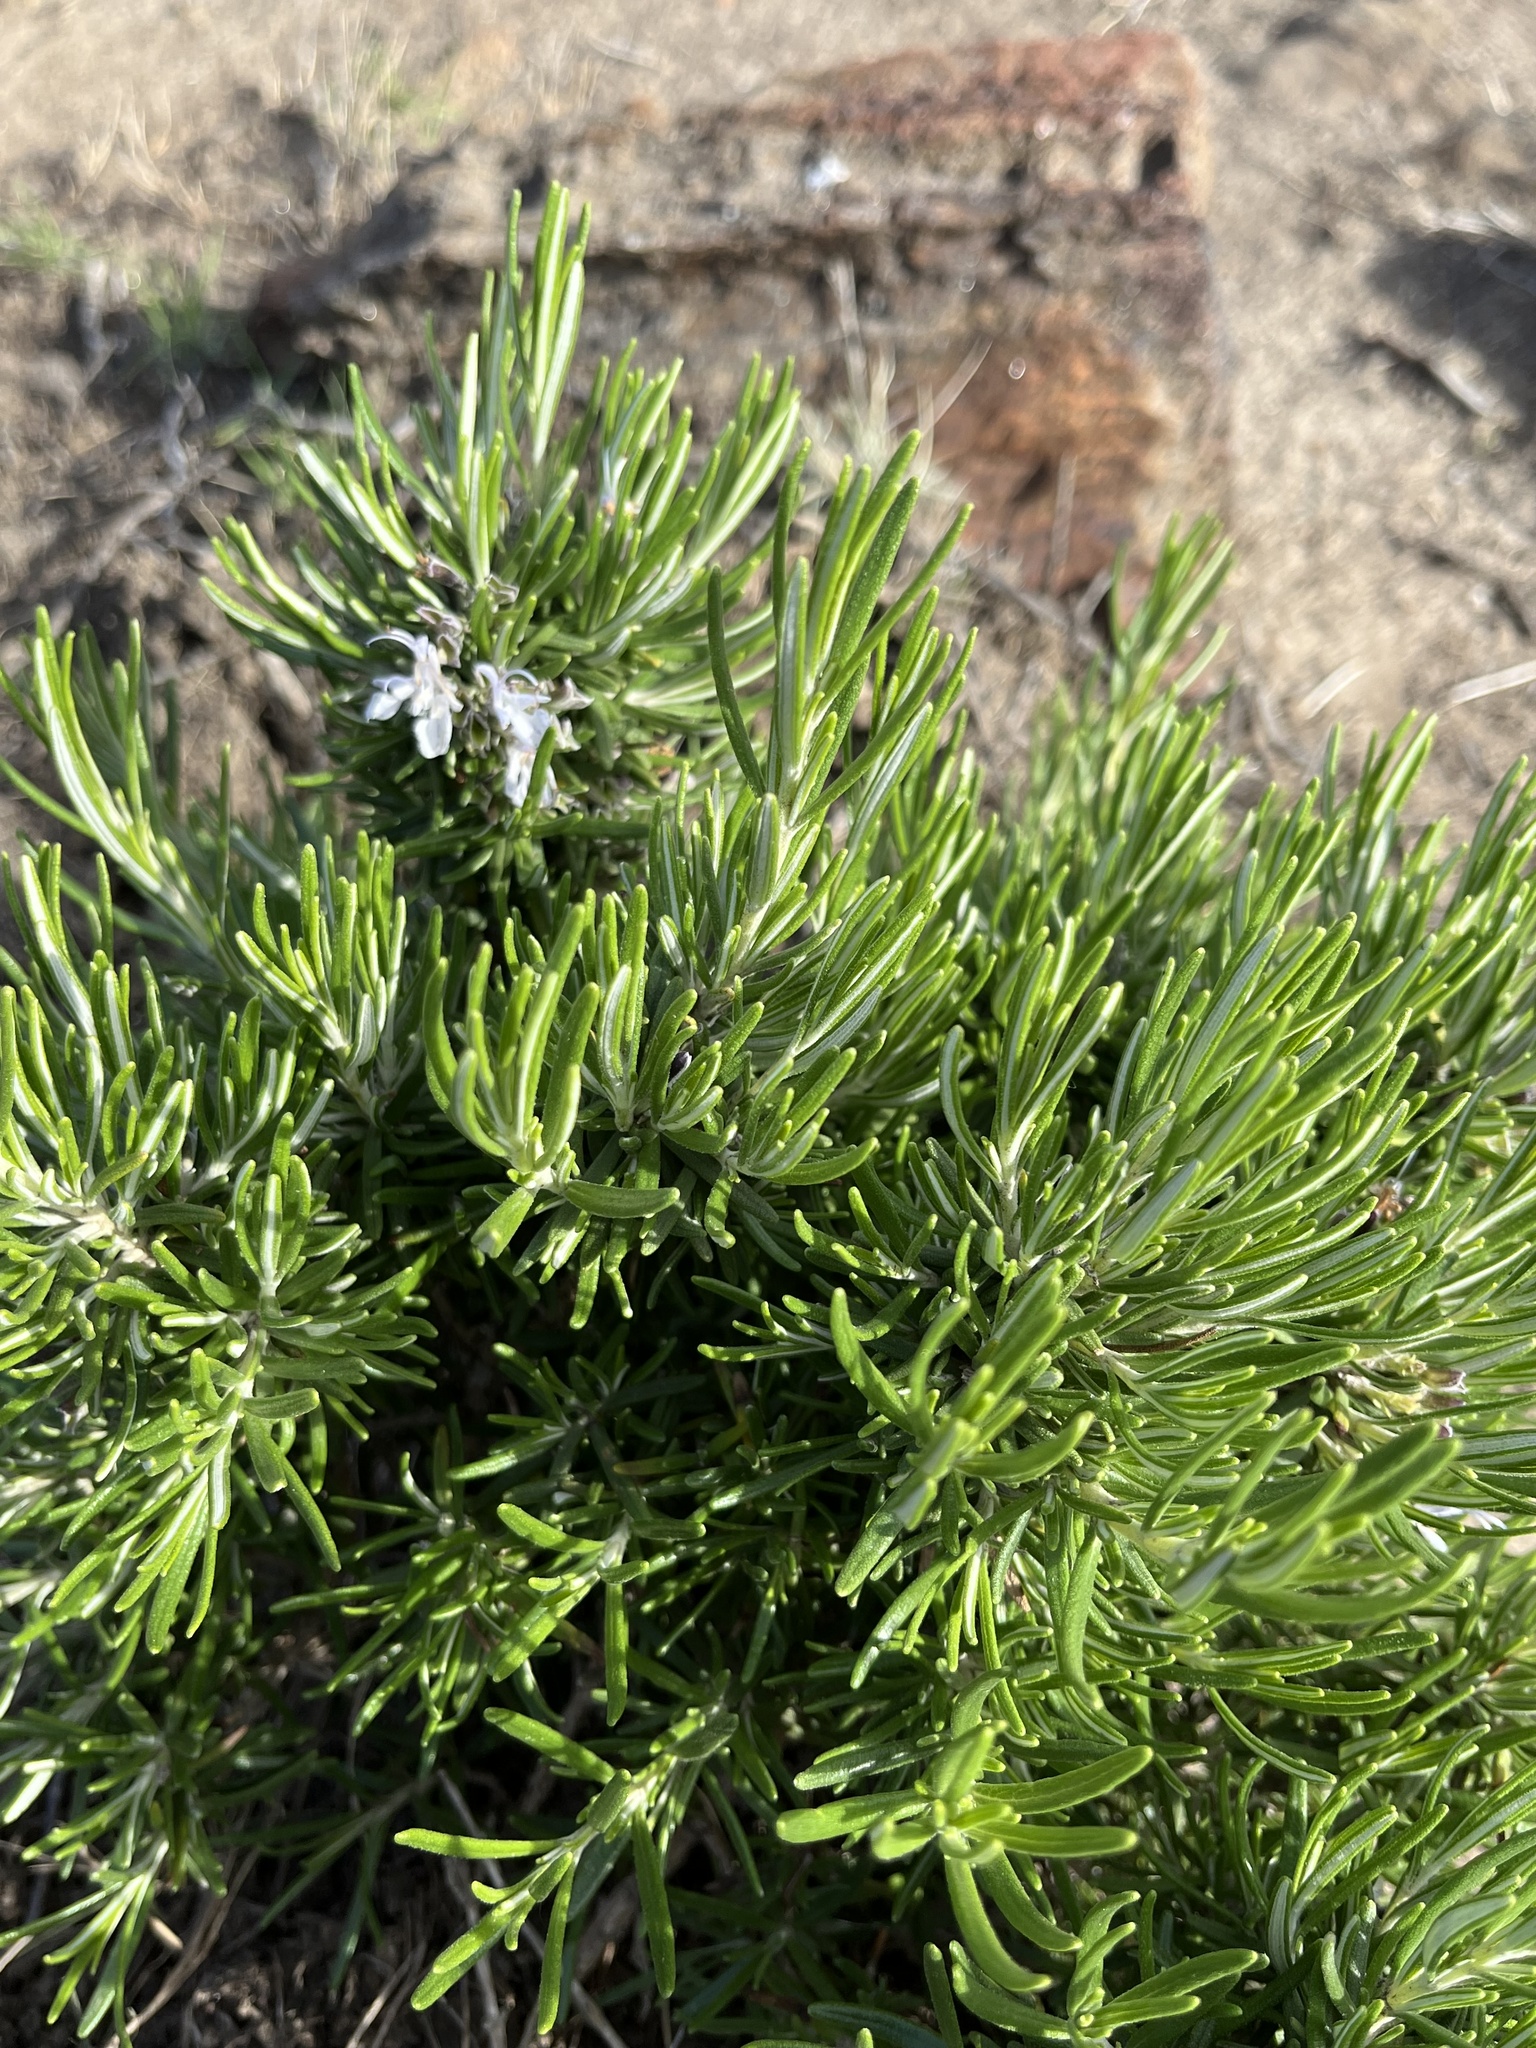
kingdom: Plantae
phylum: Tracheophyta
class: Magnoliopsida
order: Lamiales
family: Lamiaceae
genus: Salvia
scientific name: Salvia rosmarinus
